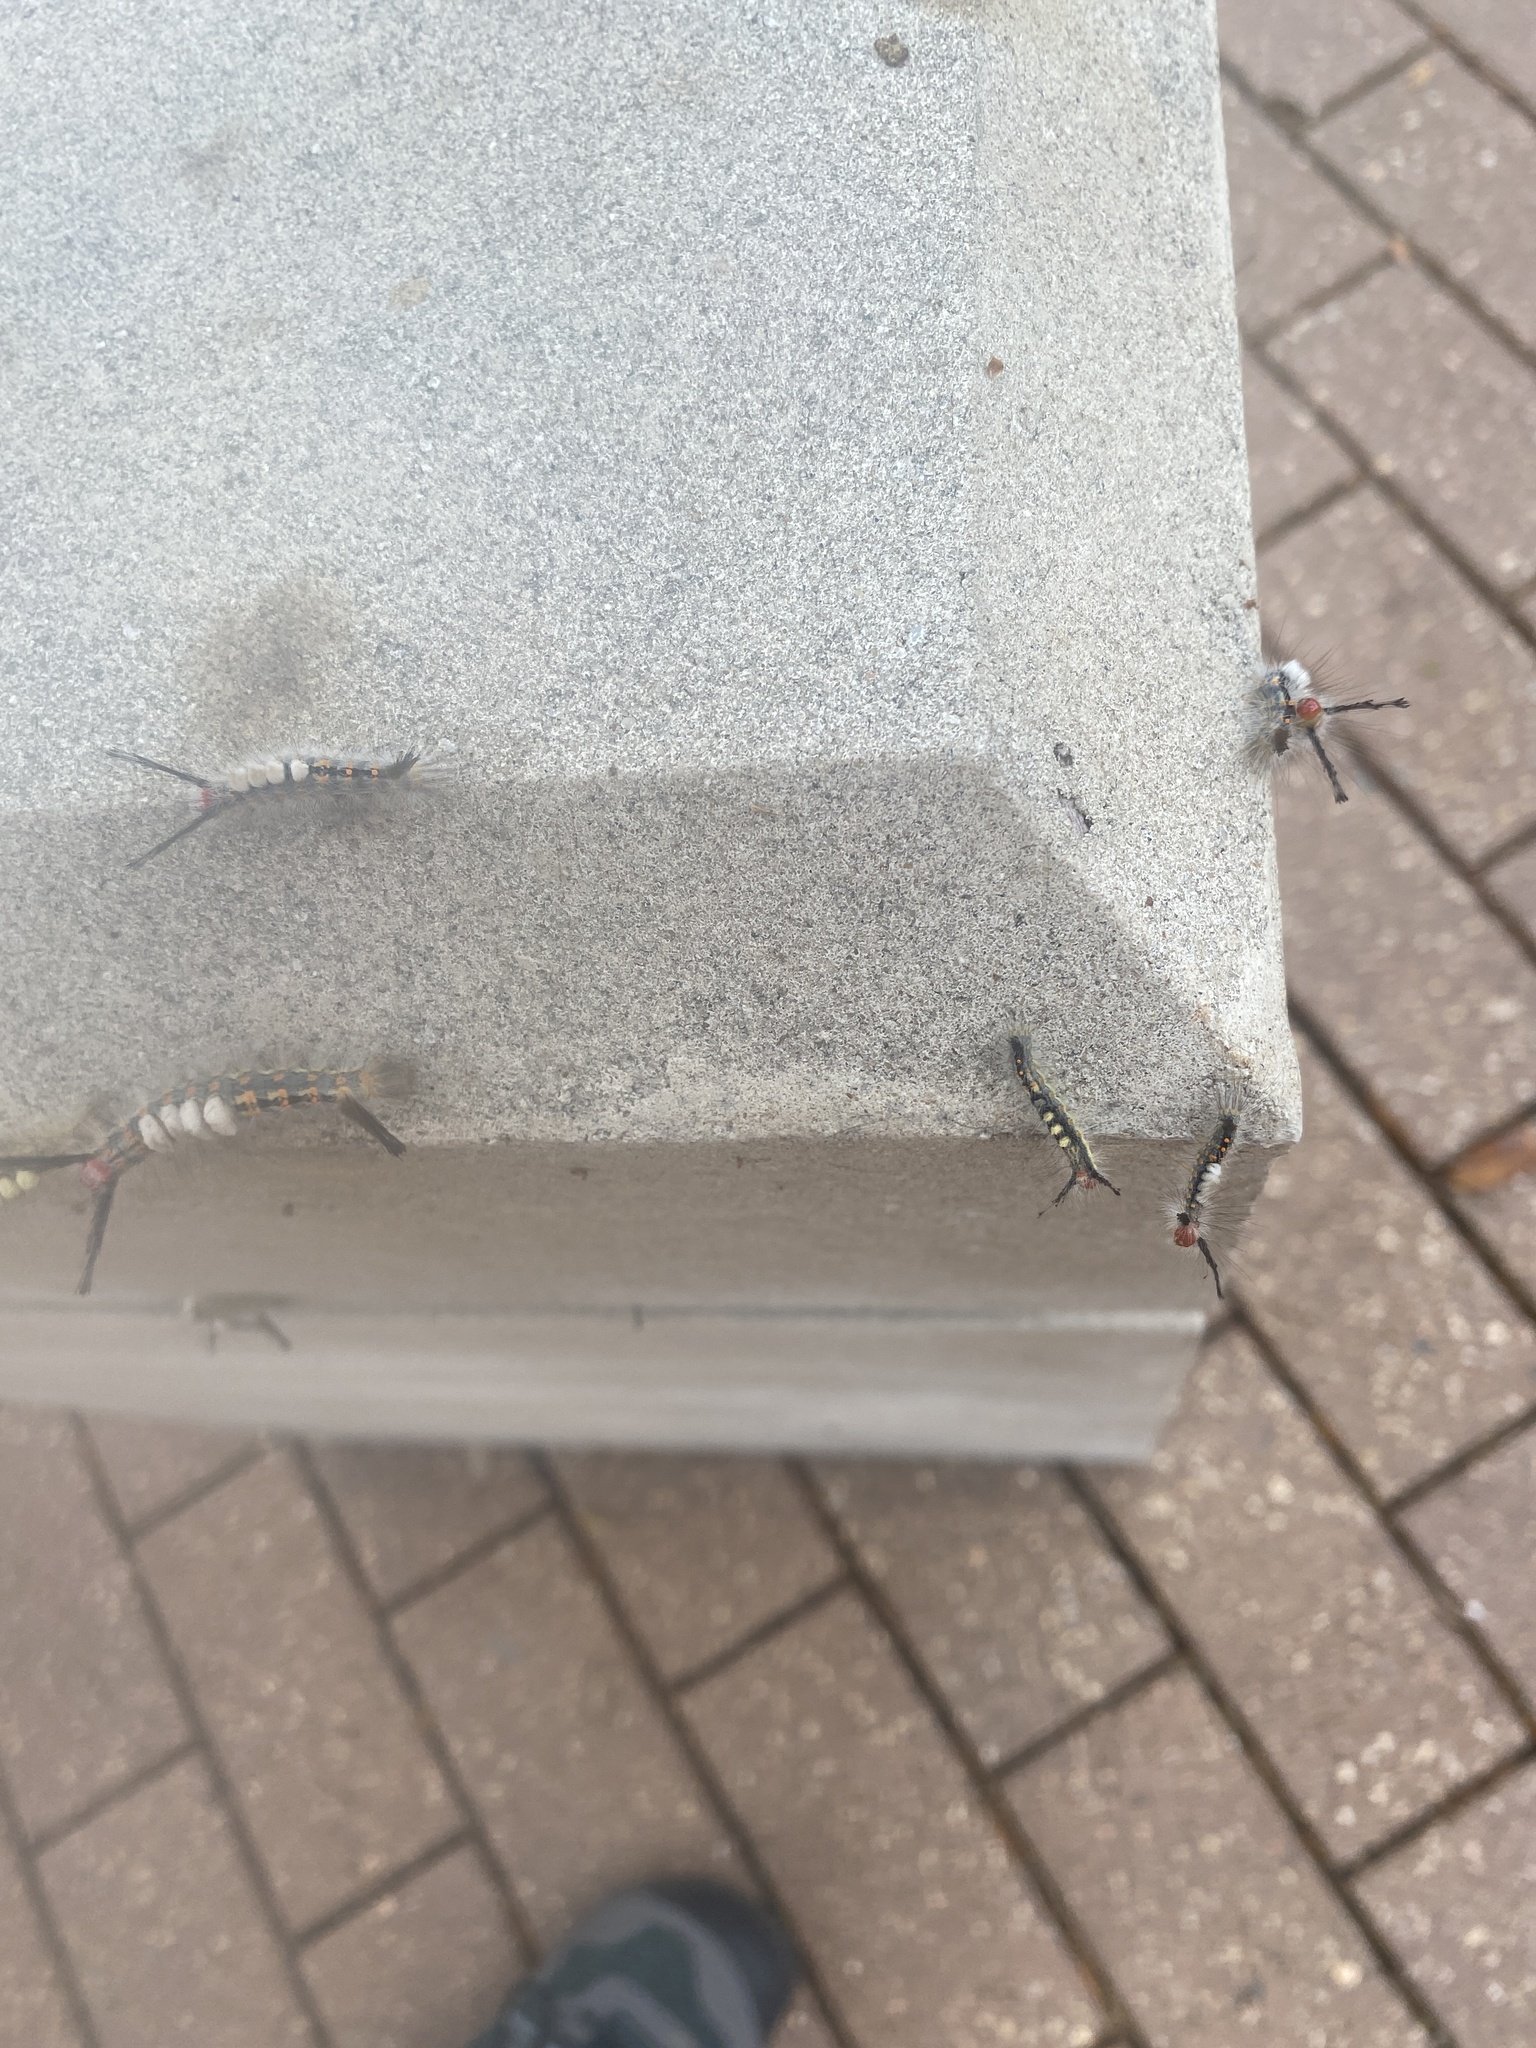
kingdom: Animalia
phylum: Arthropoda
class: Insecta
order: Lepidoptera
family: Erebidae
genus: Orgyia
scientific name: Orgyia detrita
